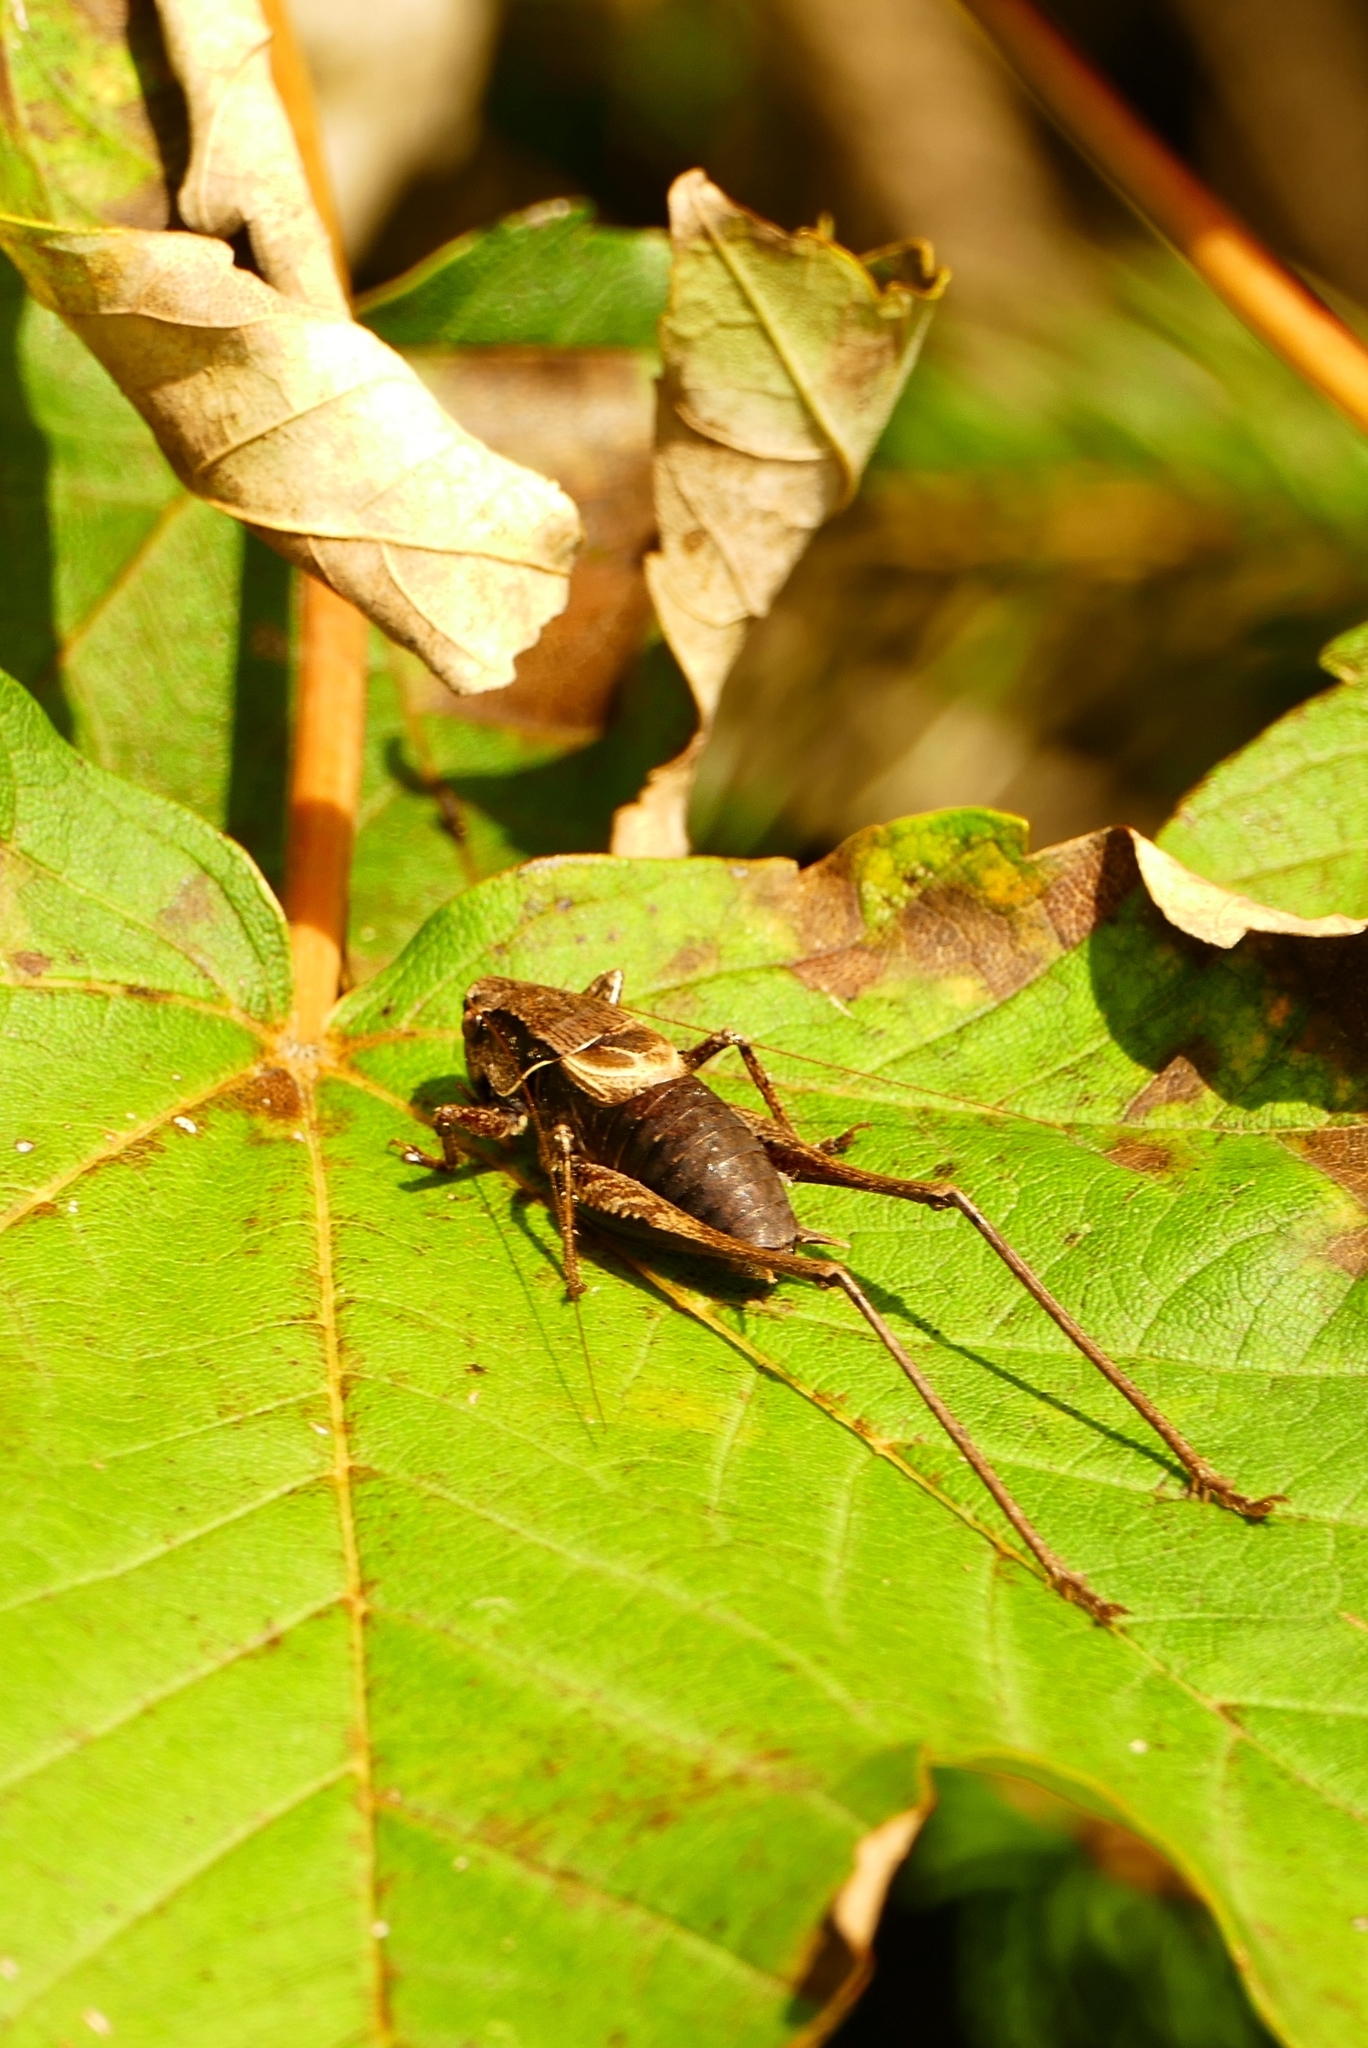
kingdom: Animalia
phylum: Arthropoda
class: Insecta
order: Orthoptera
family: Tettigoniidae
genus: Pholidoptera
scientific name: Pholidoptera griseoaptera
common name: Dark bush-cricket
